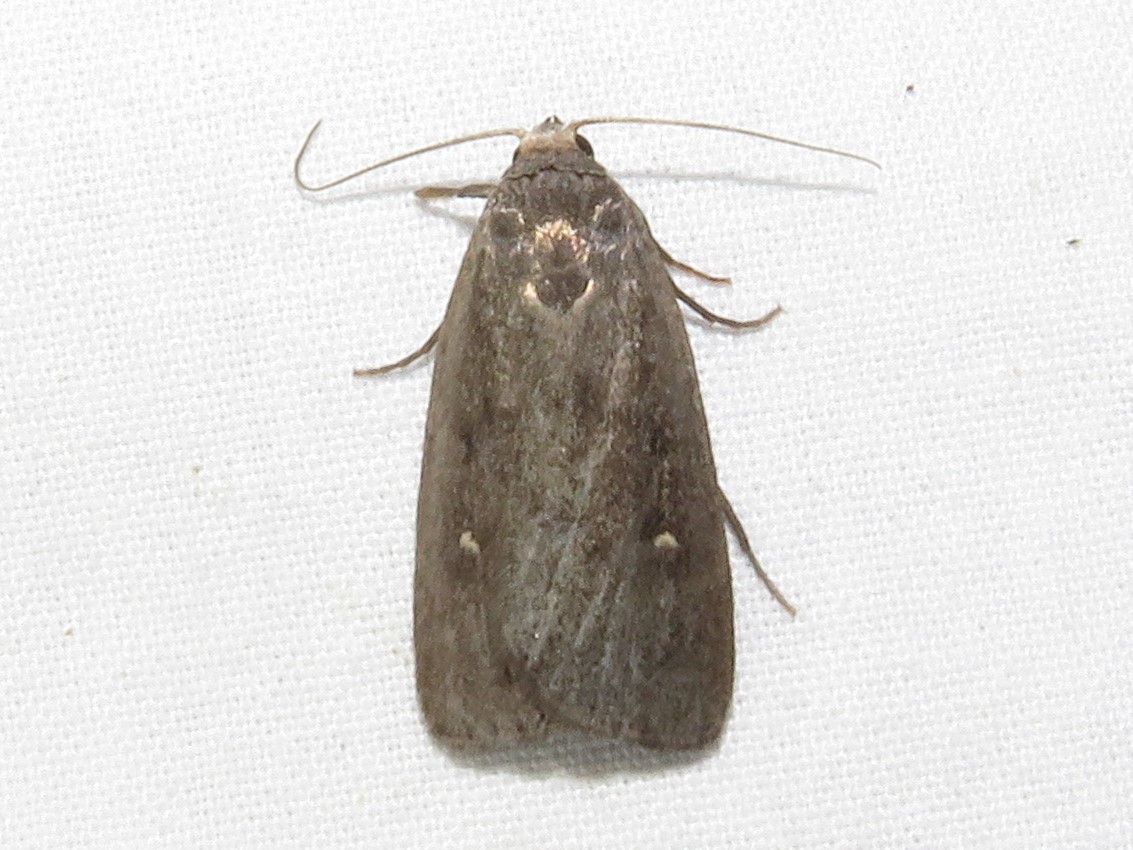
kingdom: Animalia
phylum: Arthropoda
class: Insecta
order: Lepidoptera
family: Noctuidae
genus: Proxenus
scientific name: Proxenus miranda
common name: Miranda moth
